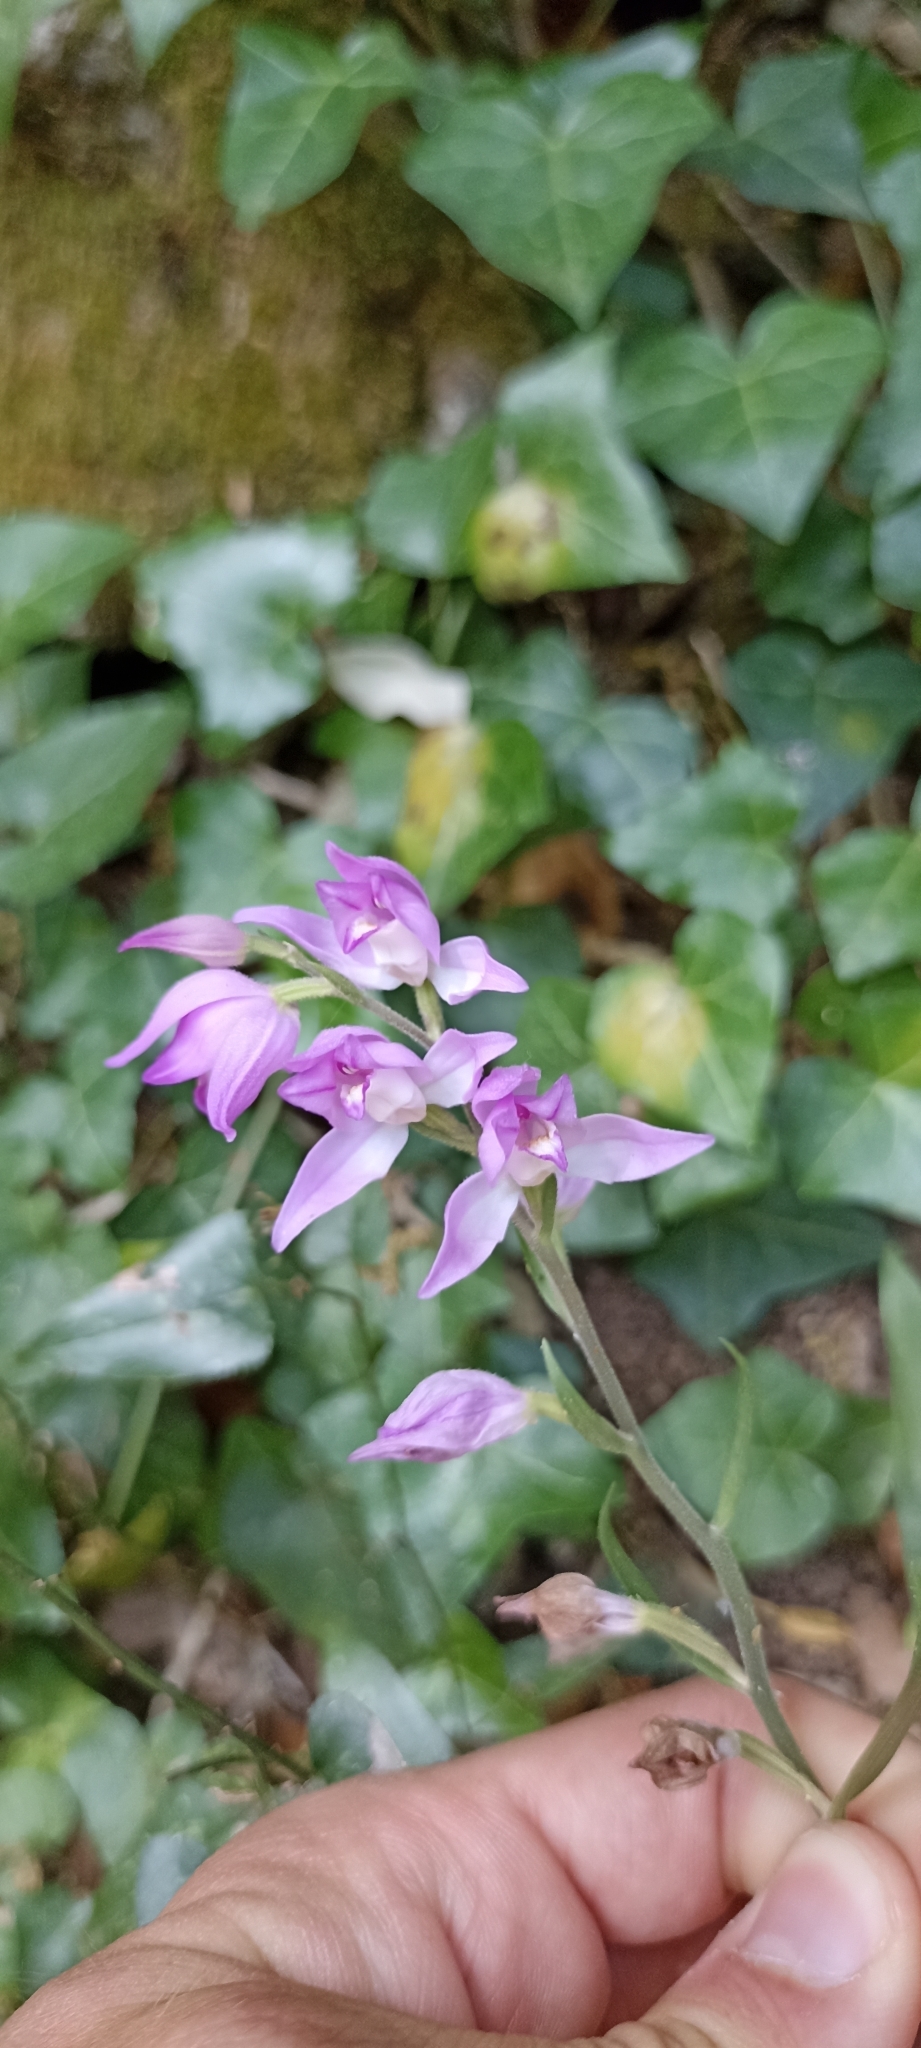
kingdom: Plantae
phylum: Tracheophyta
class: Liliopsida
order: Asparagales
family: Orchidaceae
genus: Cephalanthera
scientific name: Cephalanthera rubra
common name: Red helleborine
